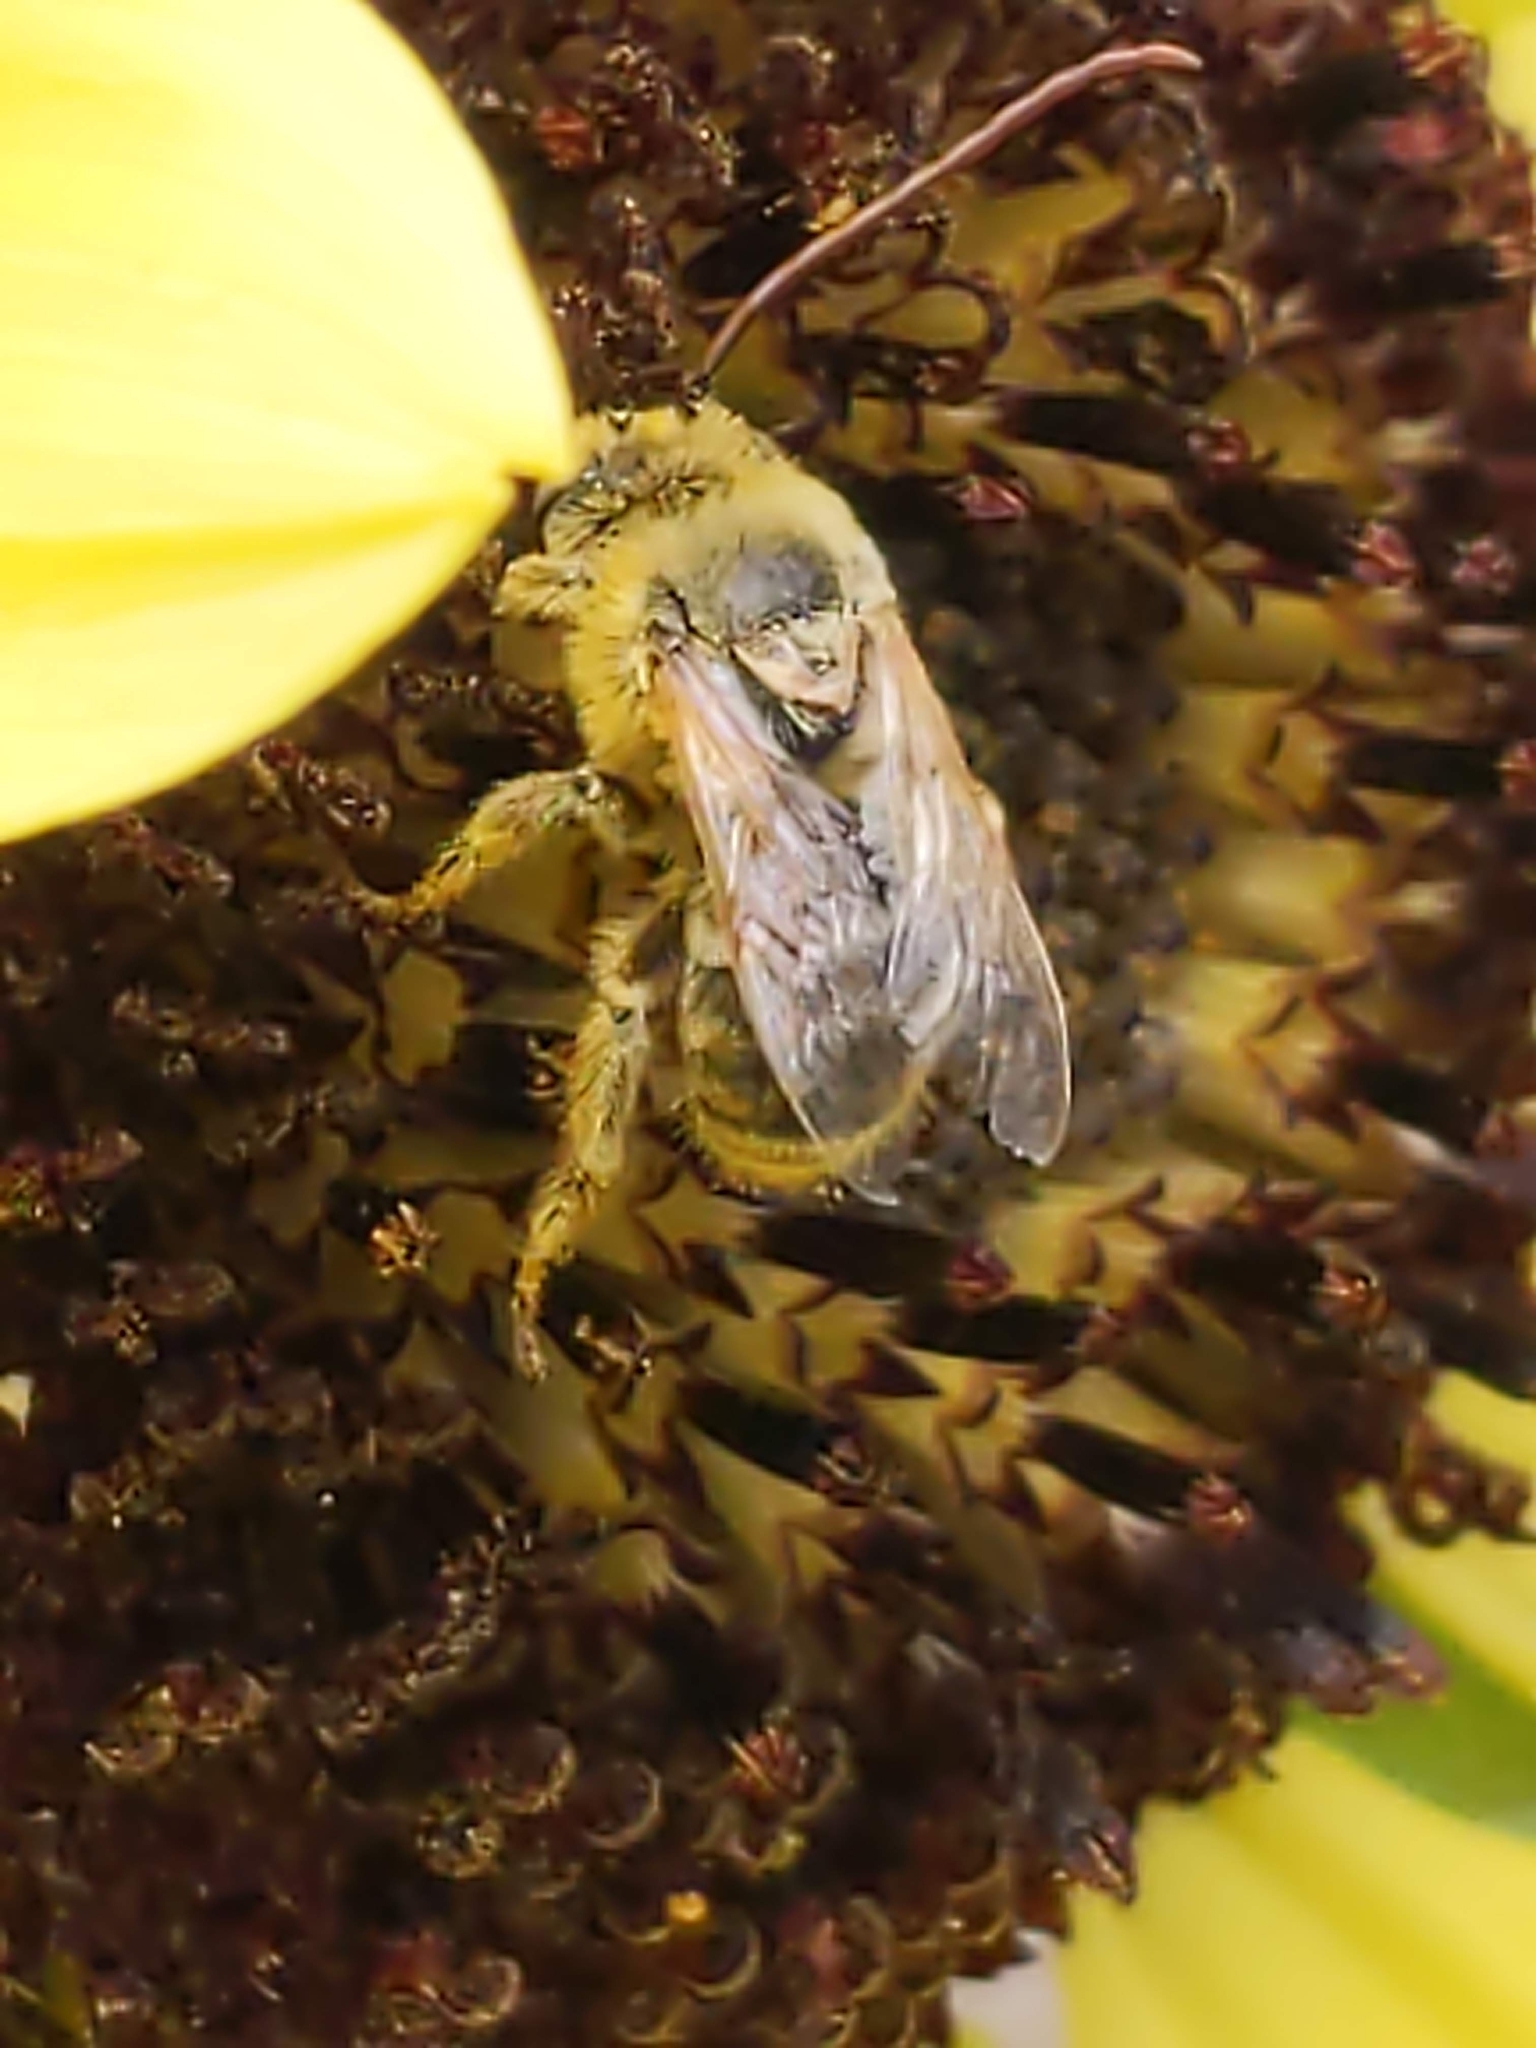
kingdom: Animalia
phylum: Arthropoda
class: Insecta
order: Hymenoptera
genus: Eumelissodes
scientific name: Eumelissodes
